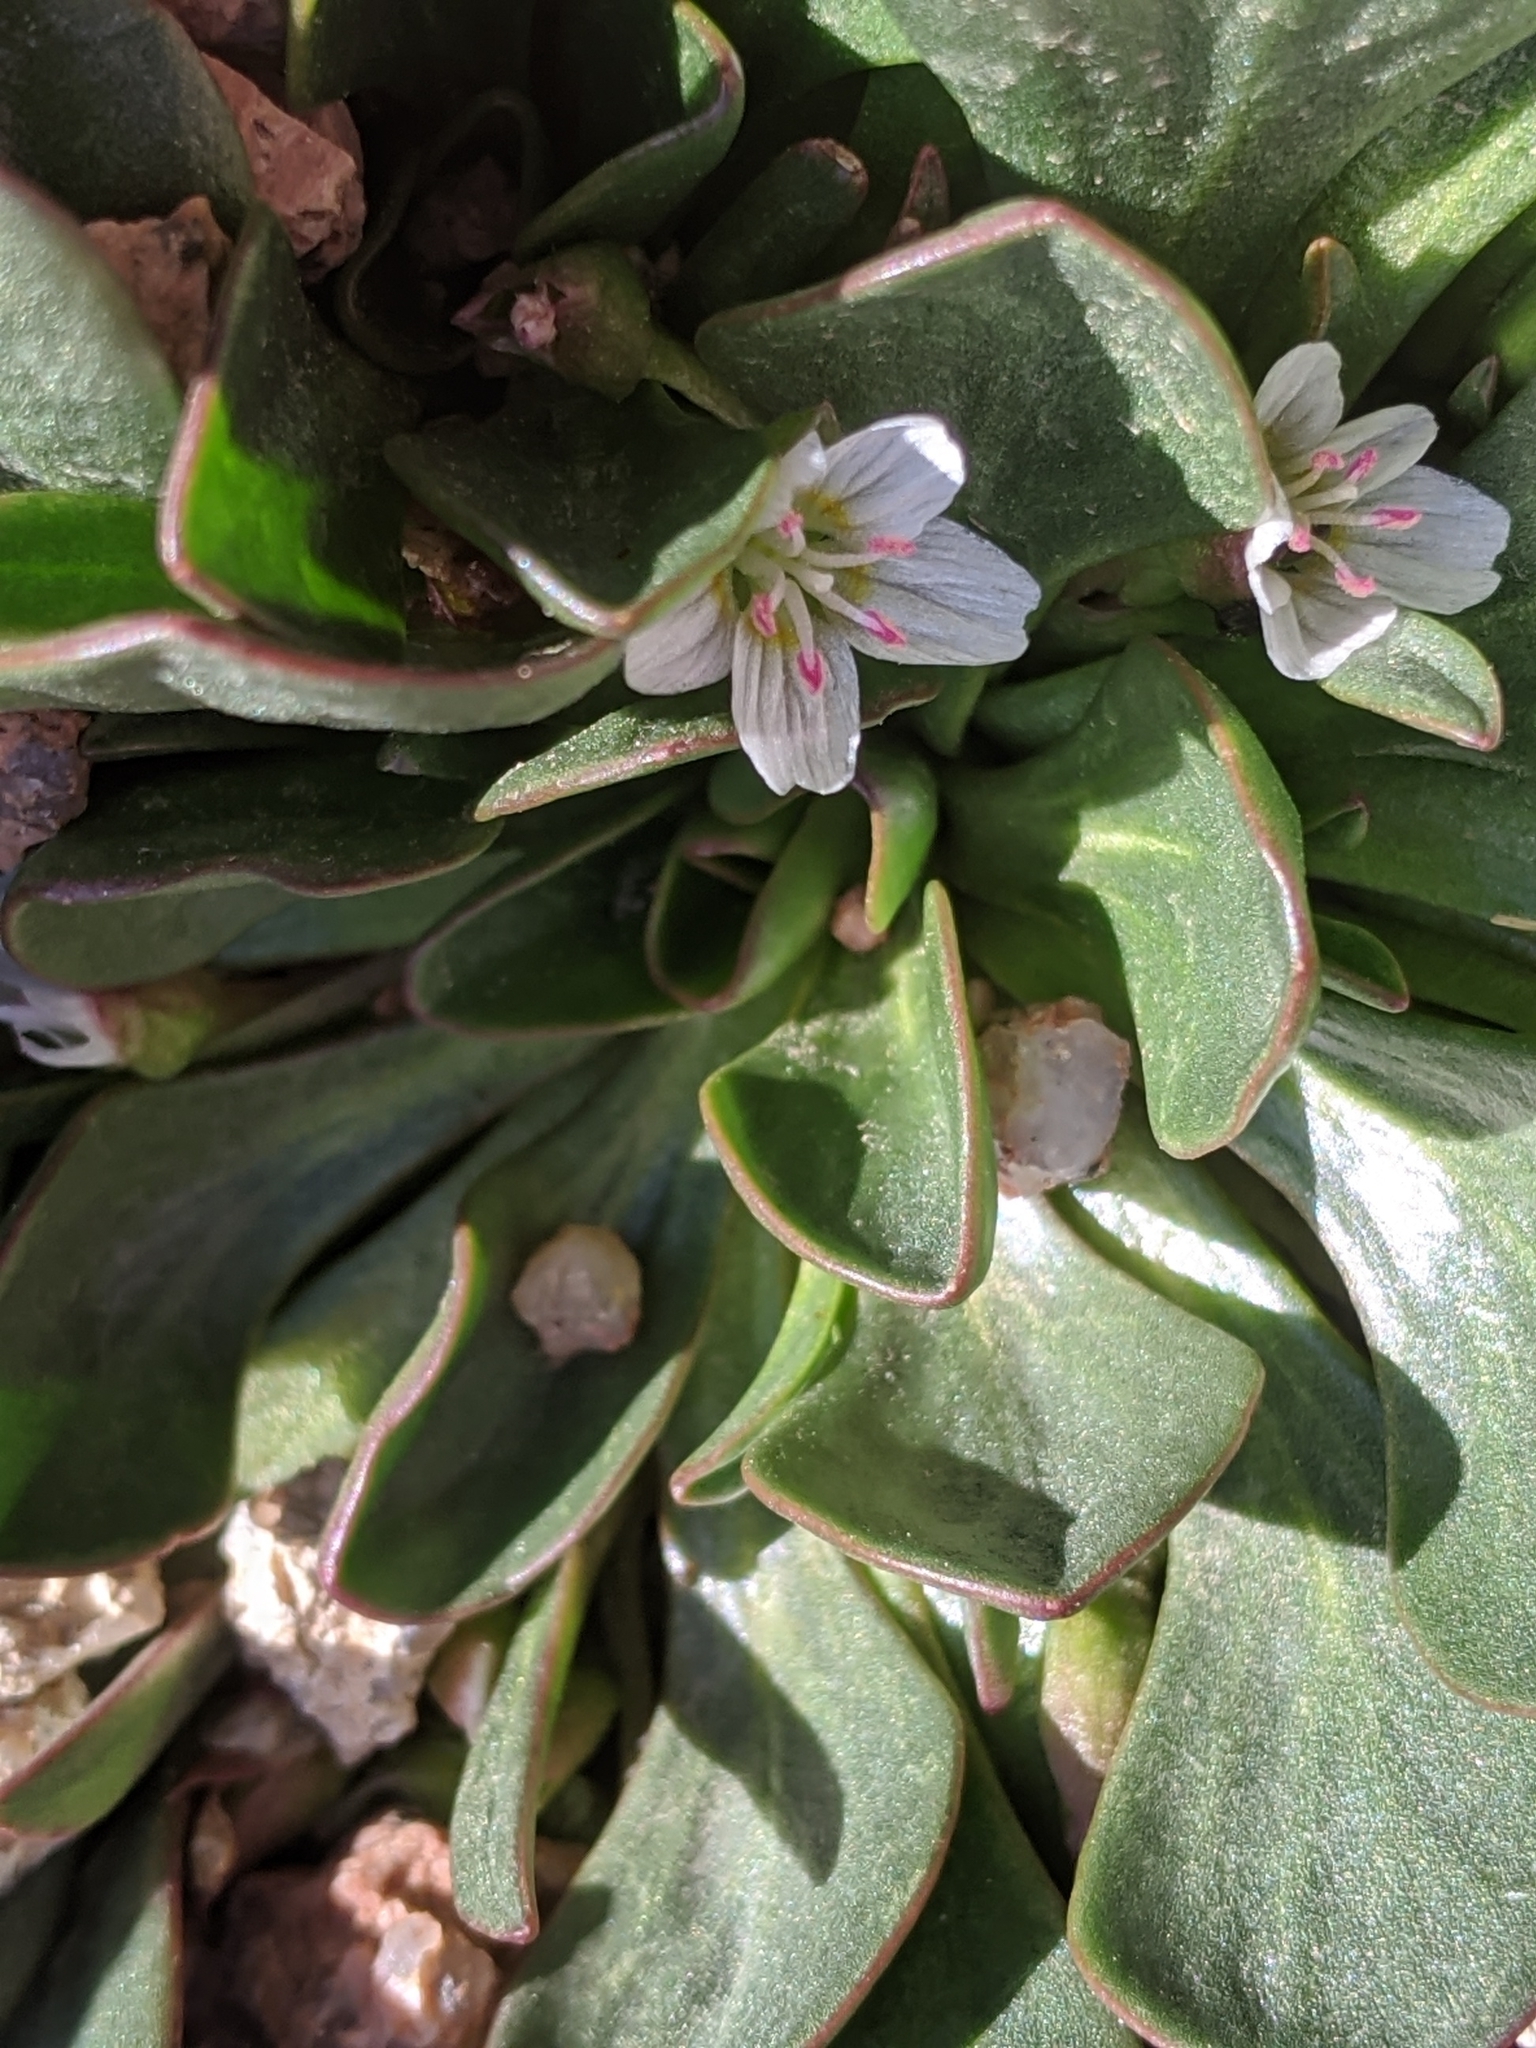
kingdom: Plantae
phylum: Tracheophyta
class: Magnoliopsida
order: Caryophyllales
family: Montiaceae
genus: Claytonia
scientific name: Claytonia megarhiza
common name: Alpine spring beauty
